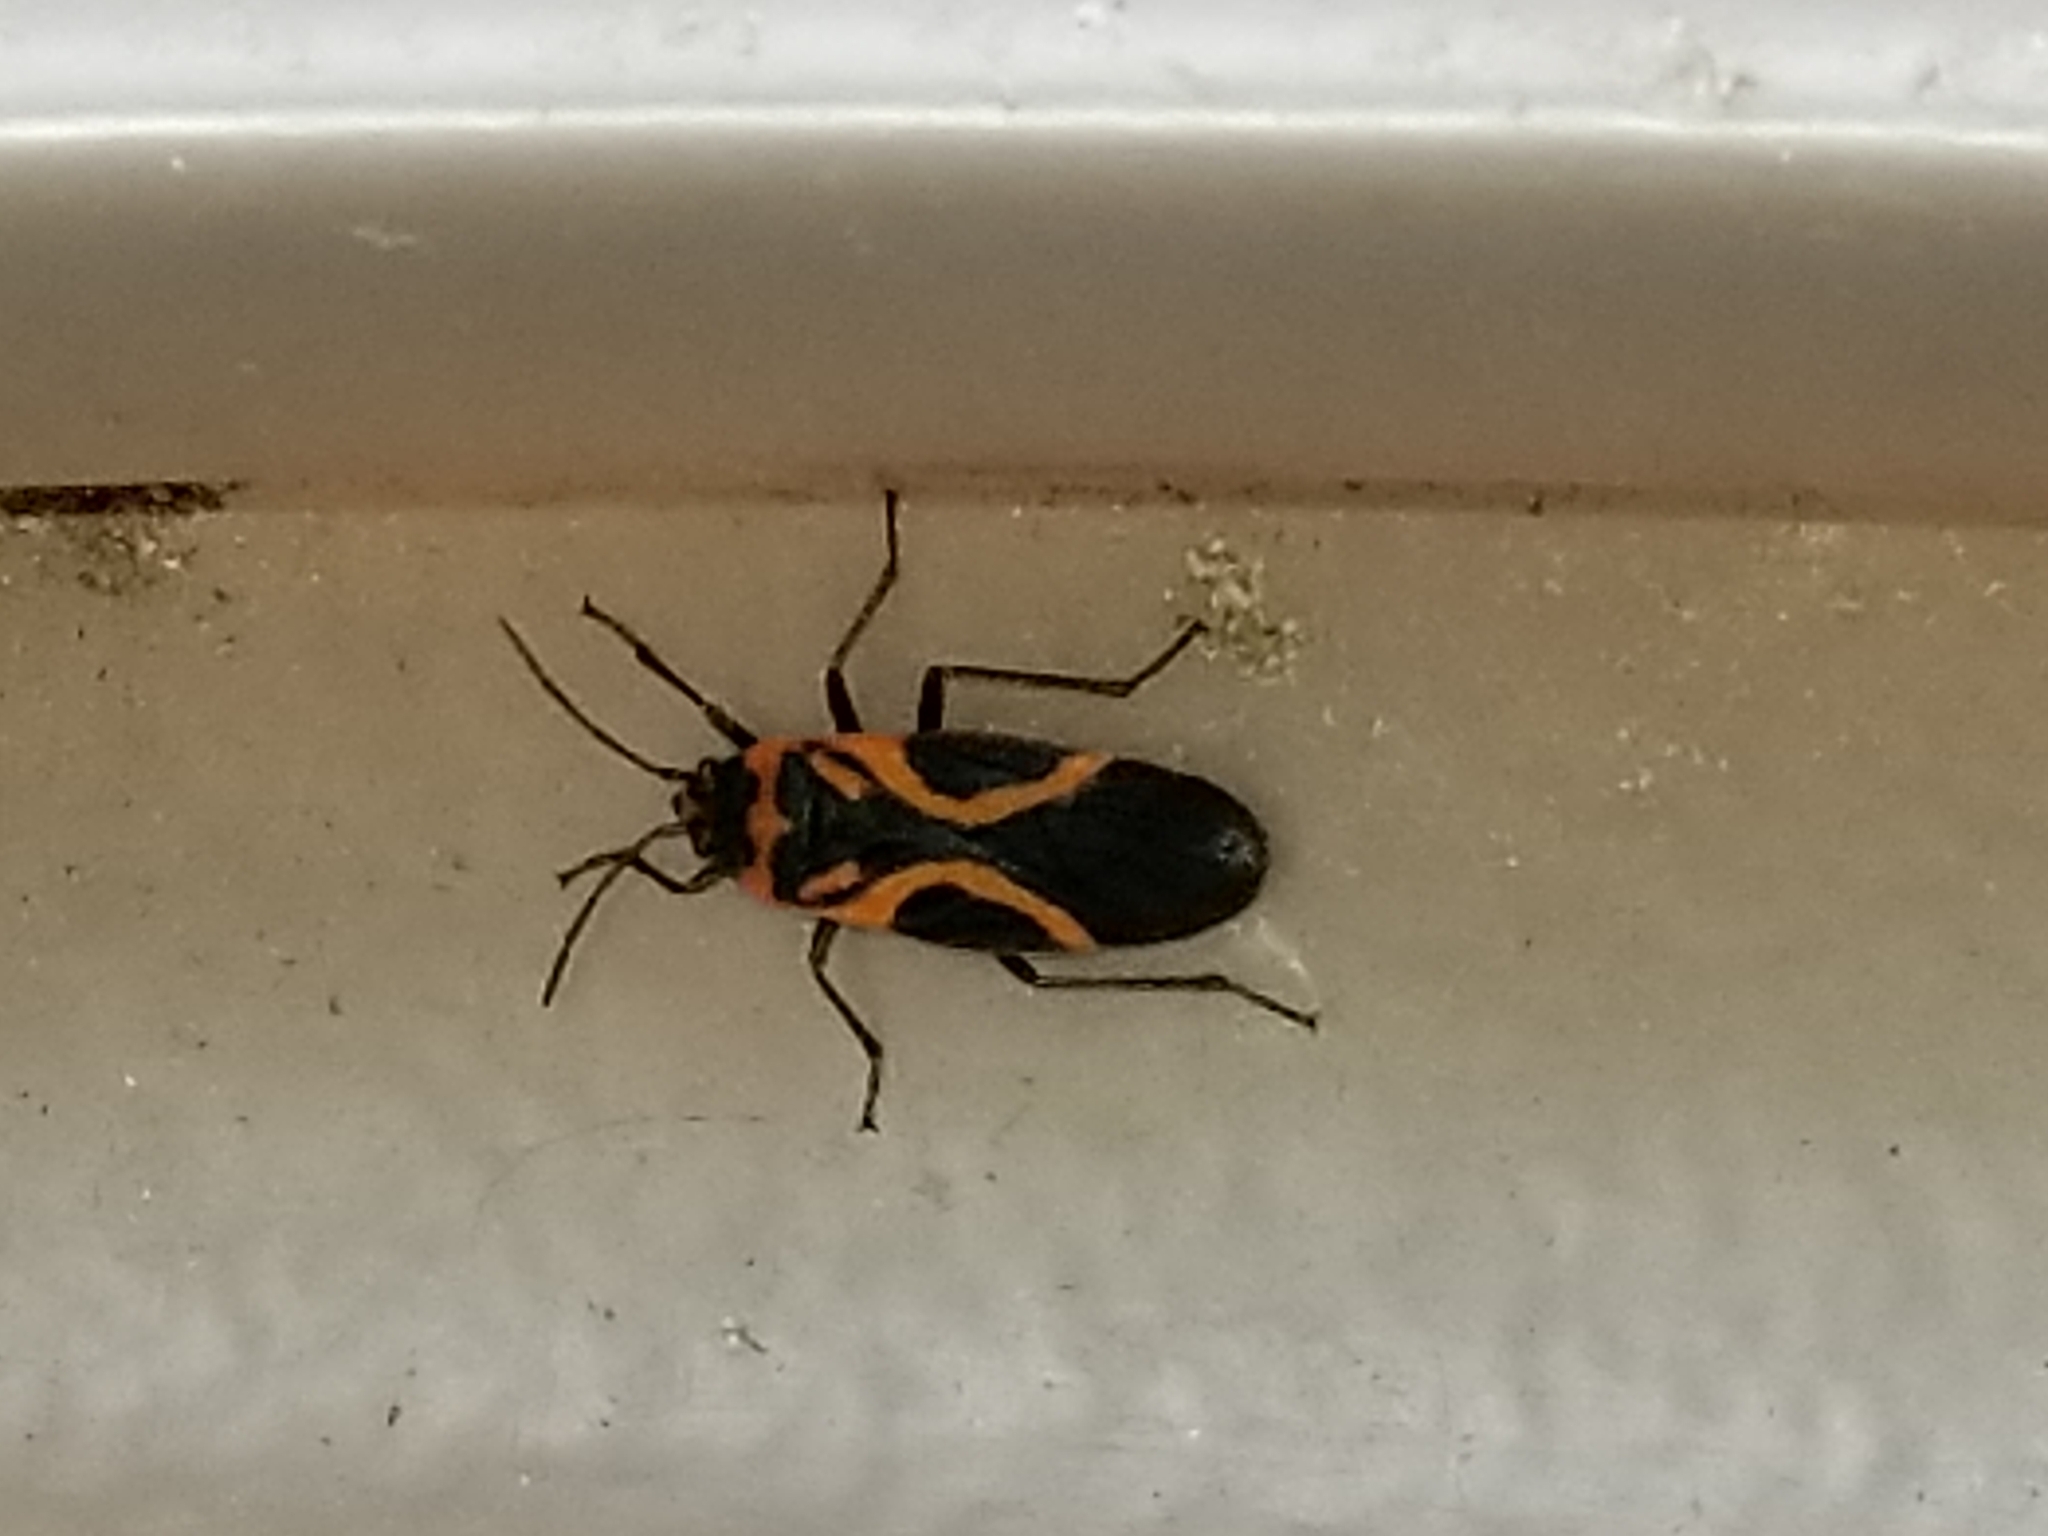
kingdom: Animalia
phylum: Arthropoda
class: Insecta
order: Hemiptera
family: Lygaeidae
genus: Lygaeus
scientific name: Lygaeus turcicus
